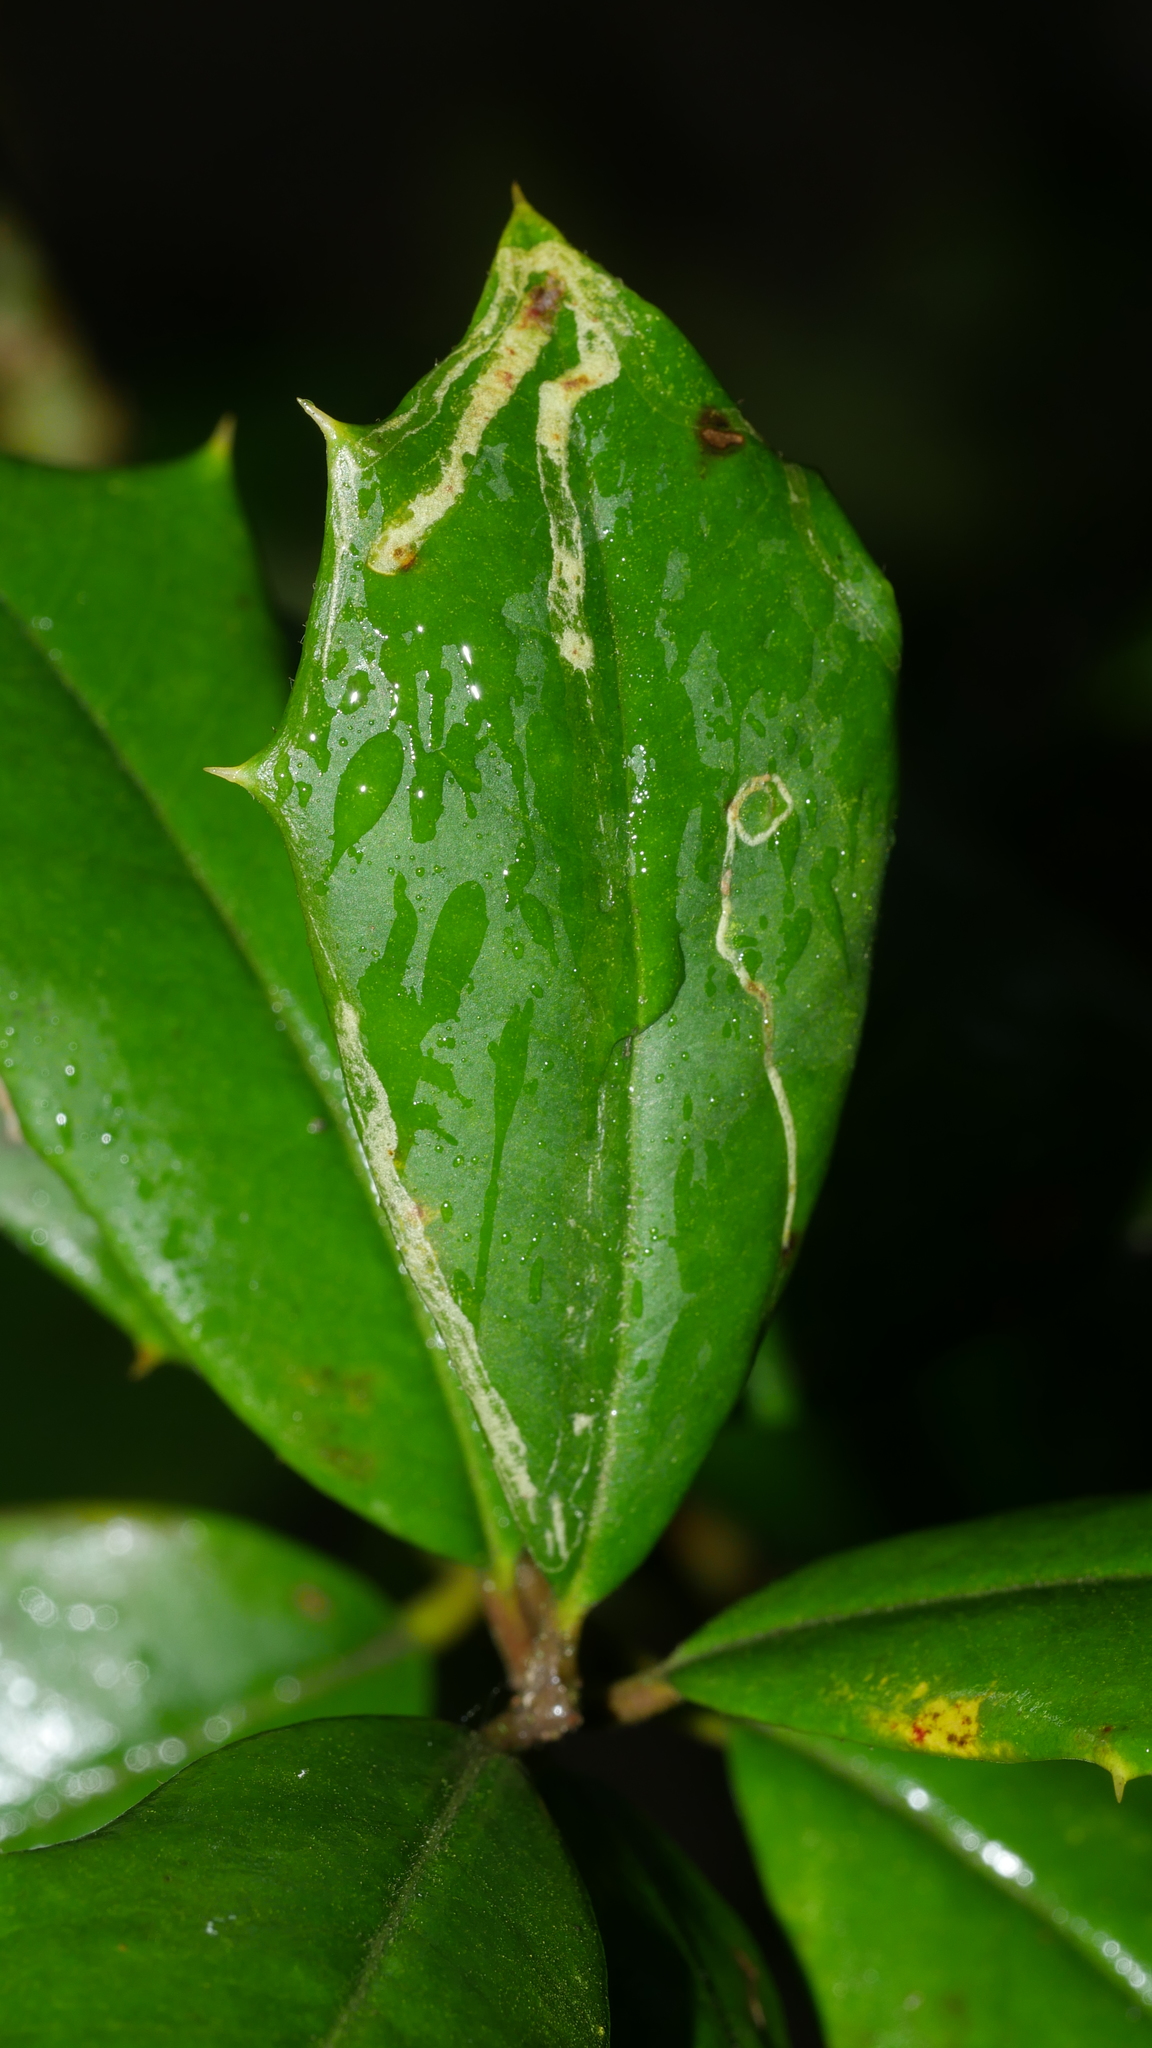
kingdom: Animalia
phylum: Arthropoda
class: Insecta
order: Diptera
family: Agromyzidae
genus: Phytomyza
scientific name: Phytomyza opacae
